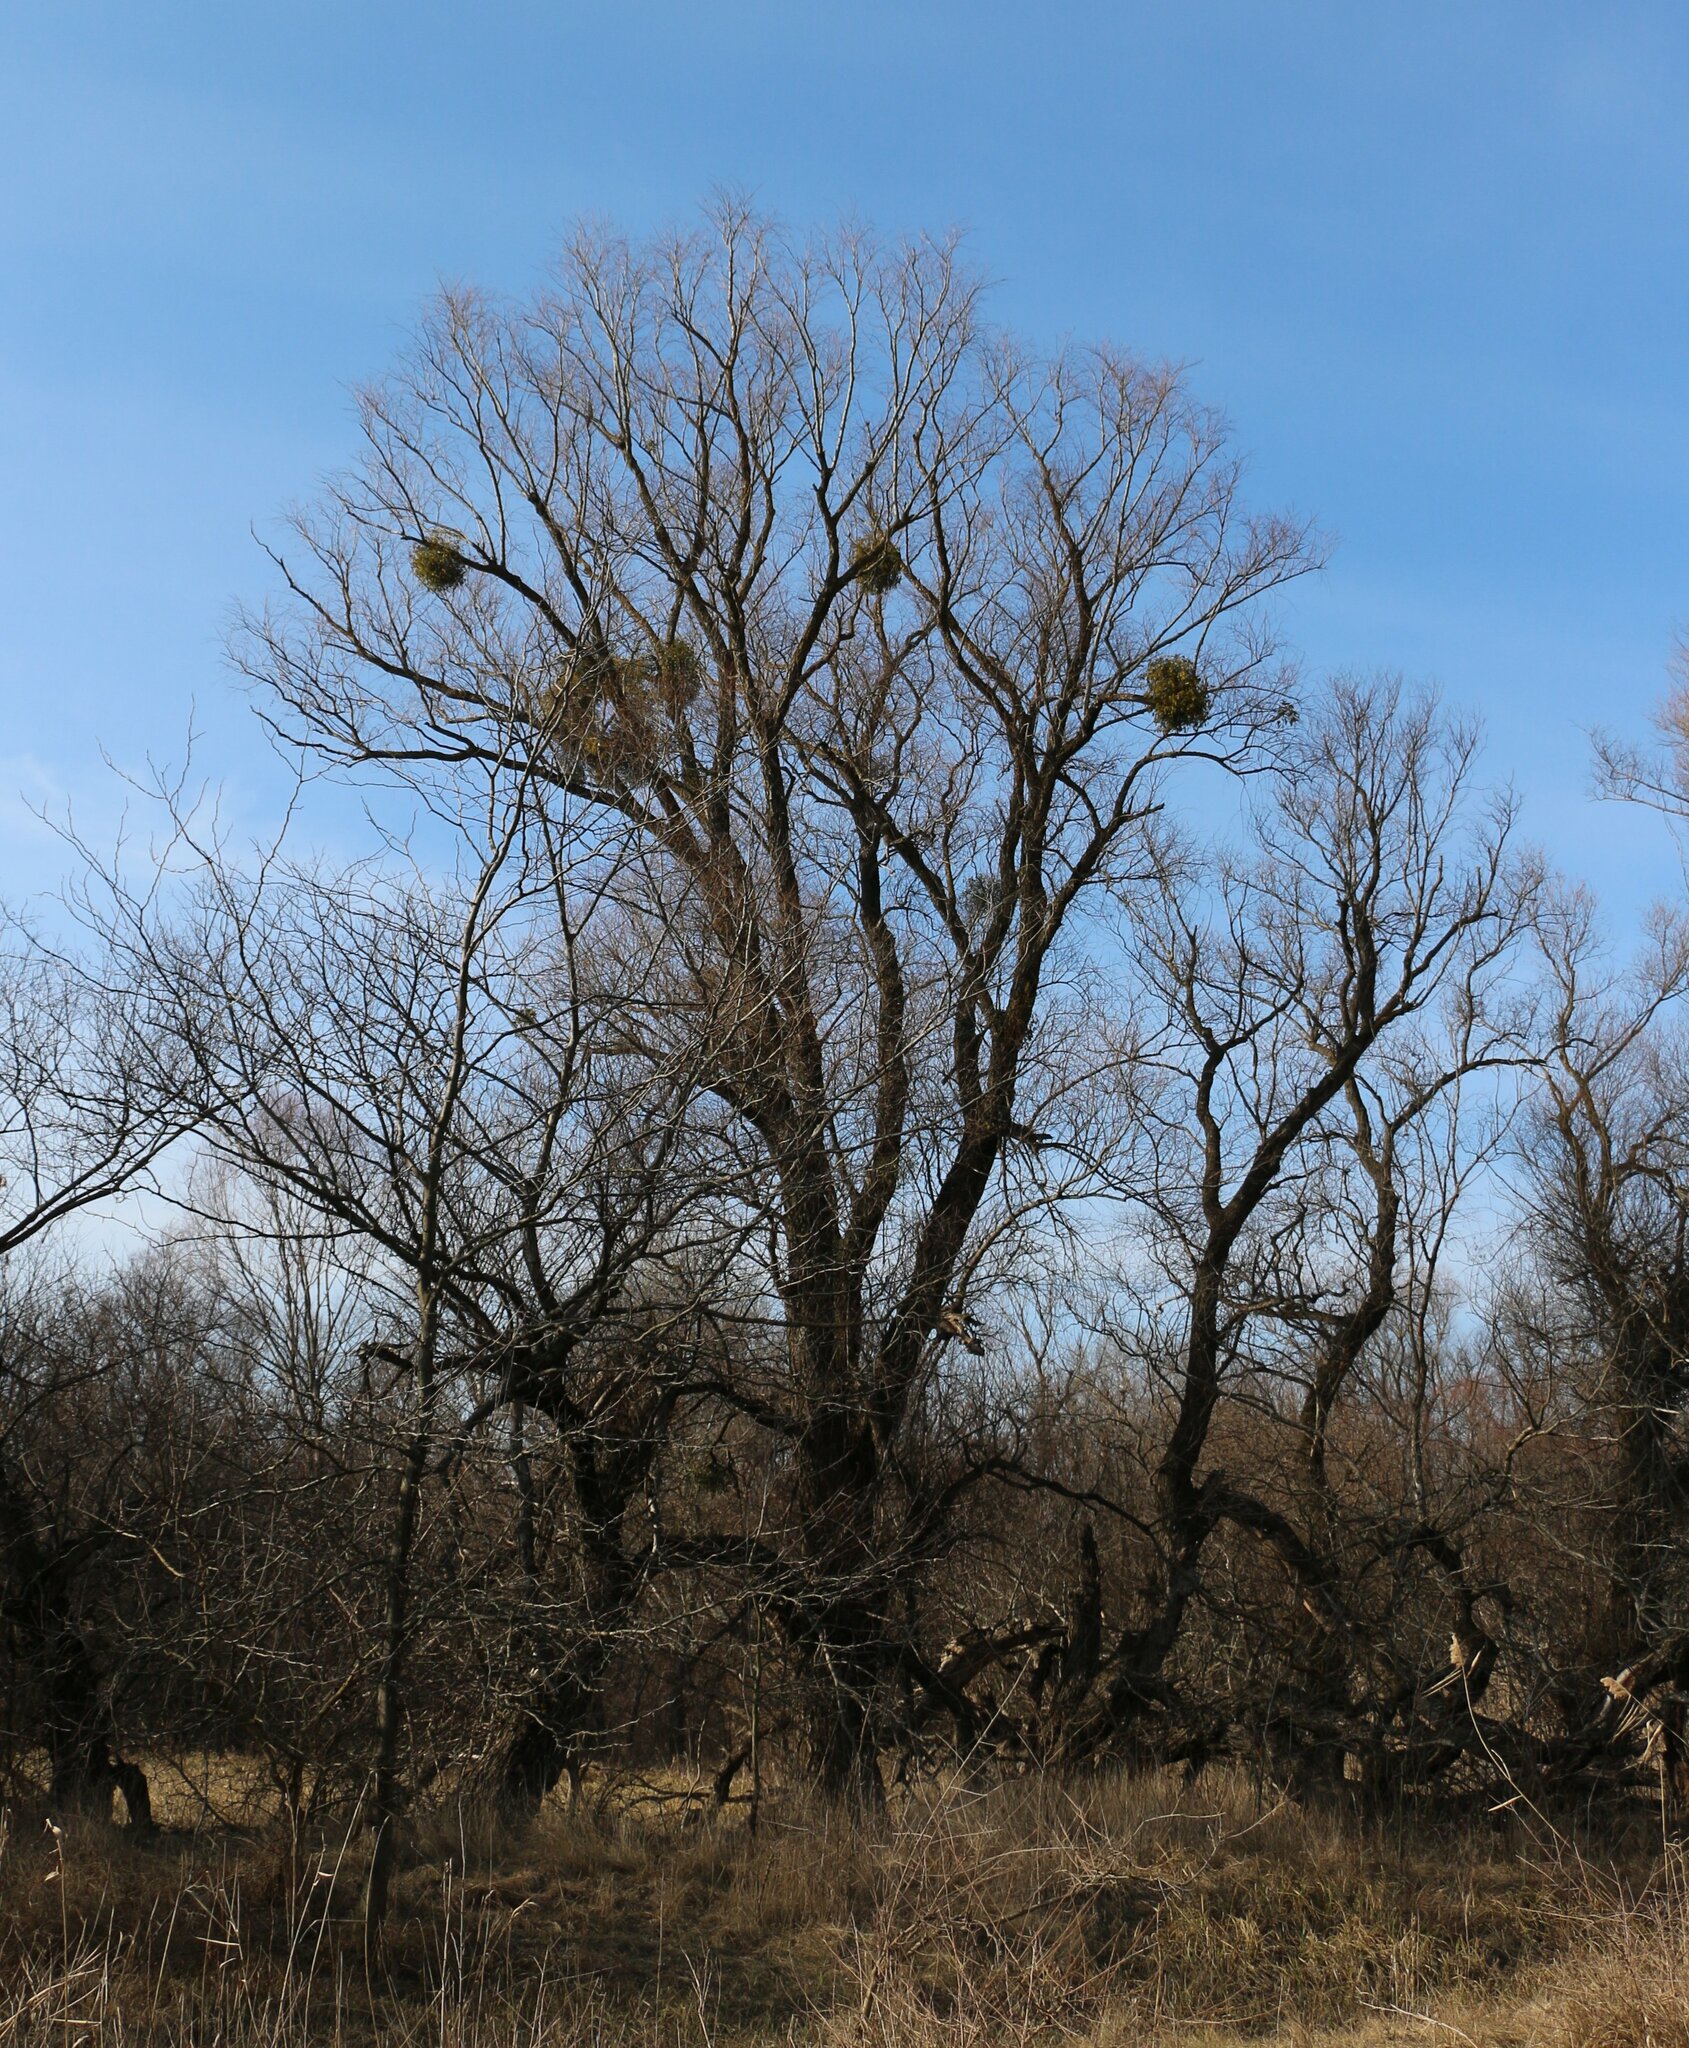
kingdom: Plantae
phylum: Tracheophyta
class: Magnoliopsida
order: Santalales
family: Viscaceae
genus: Viscum
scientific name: Viscum album
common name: Mistletoe
